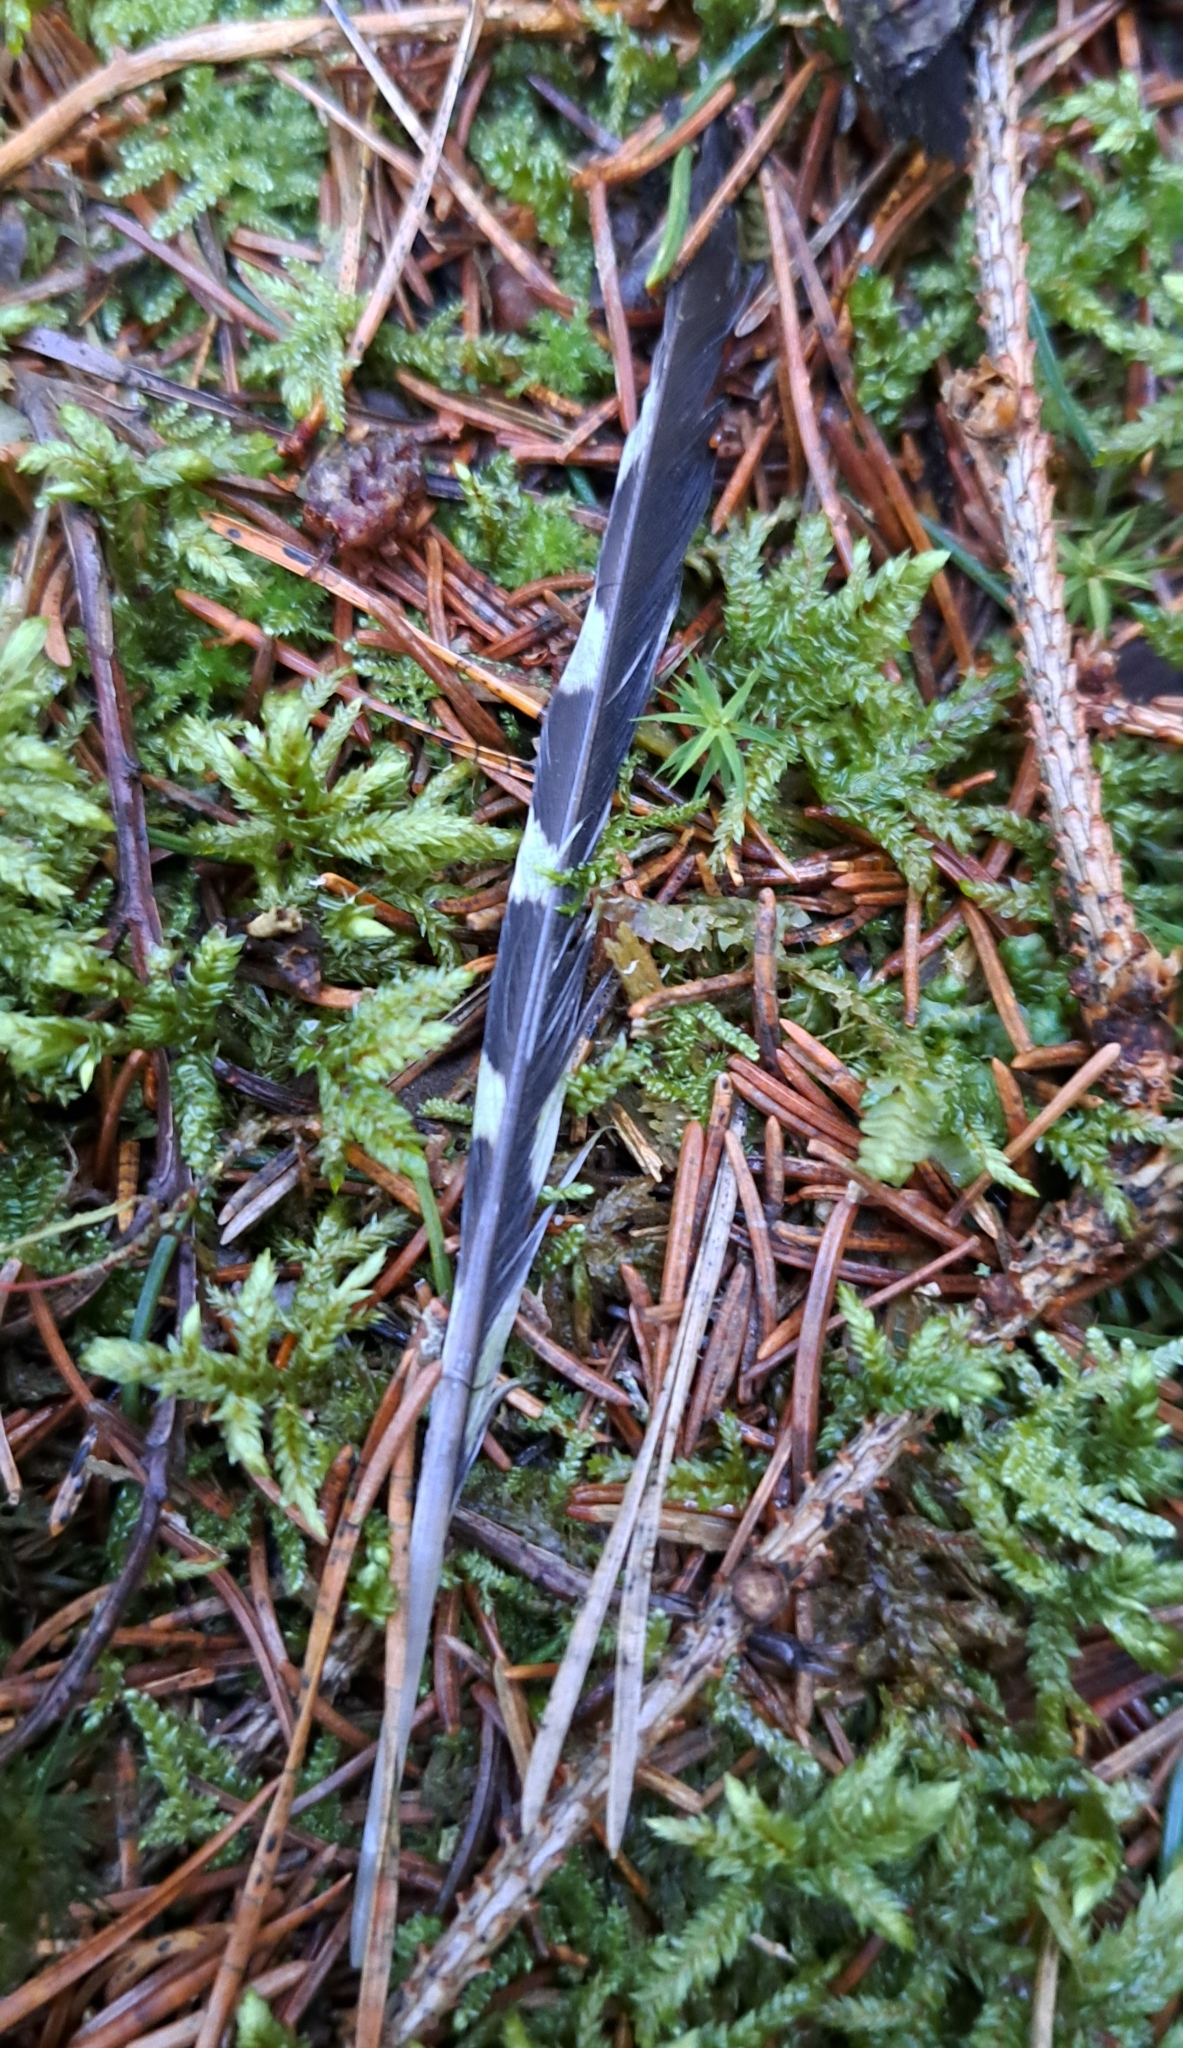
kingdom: Animalia
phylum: Chordata
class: Aves
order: Piciformes
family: Picidae
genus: Dendrocopos
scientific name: Dendrocopos major
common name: Great spotted woodpecker
